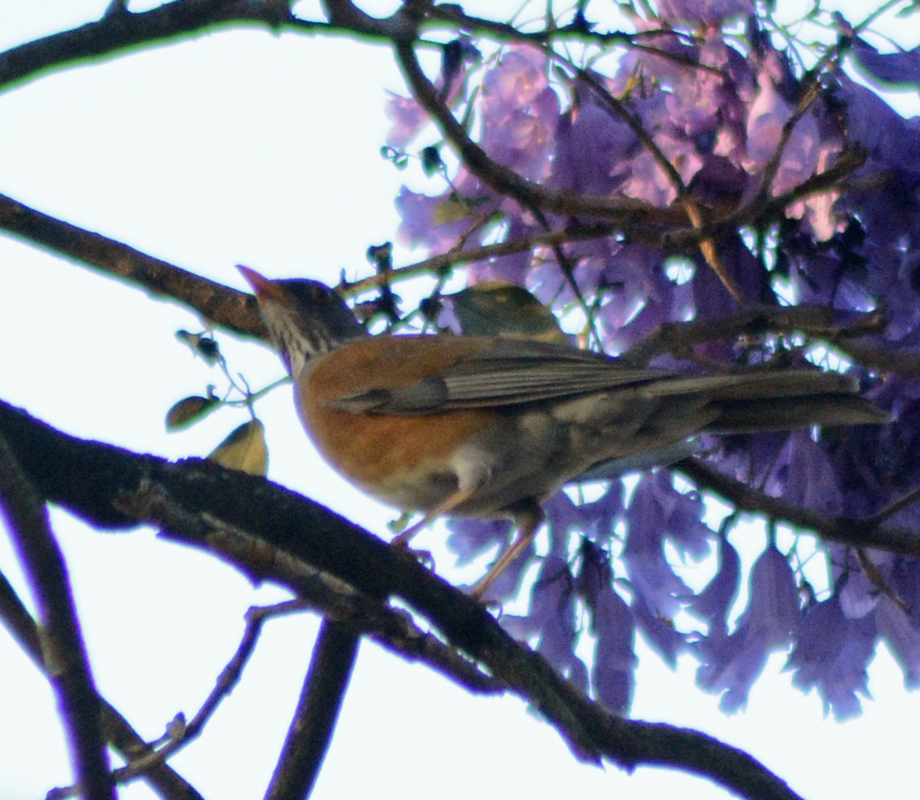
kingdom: Animalia
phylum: Chordata
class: Aves
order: Passeriformes
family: Turdidae
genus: Turdus
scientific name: Turdus rufopalliatus
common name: Rufous-backed robin
